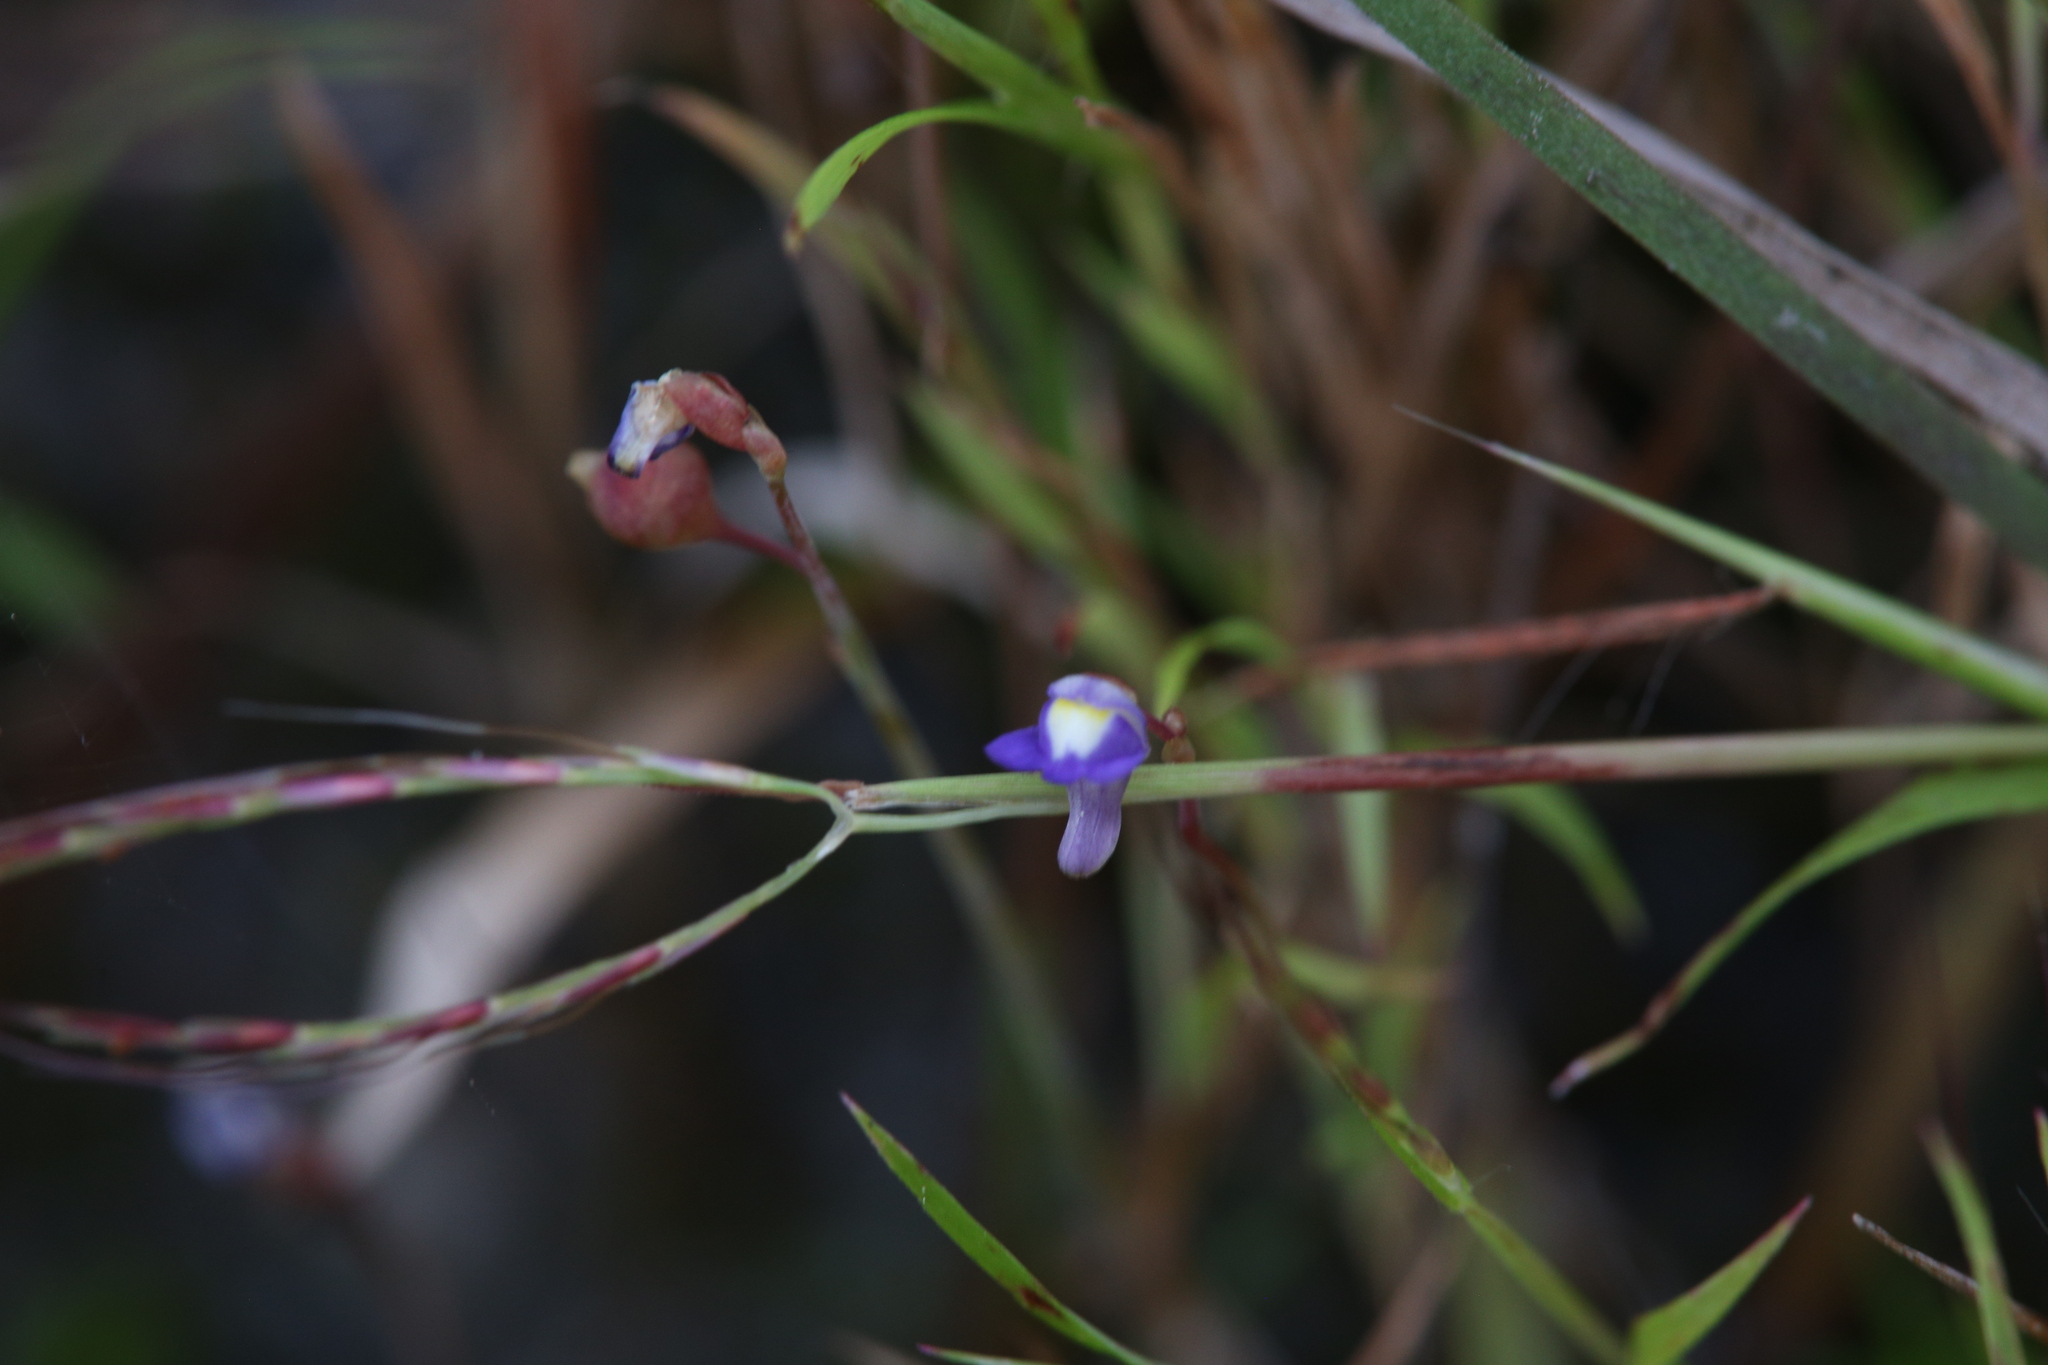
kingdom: Plantae
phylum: Tracheophyta
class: Magnoliopsida
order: Lamiales
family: Lentibulariaceae
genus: Utricularia
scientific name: Utricularia limosa
